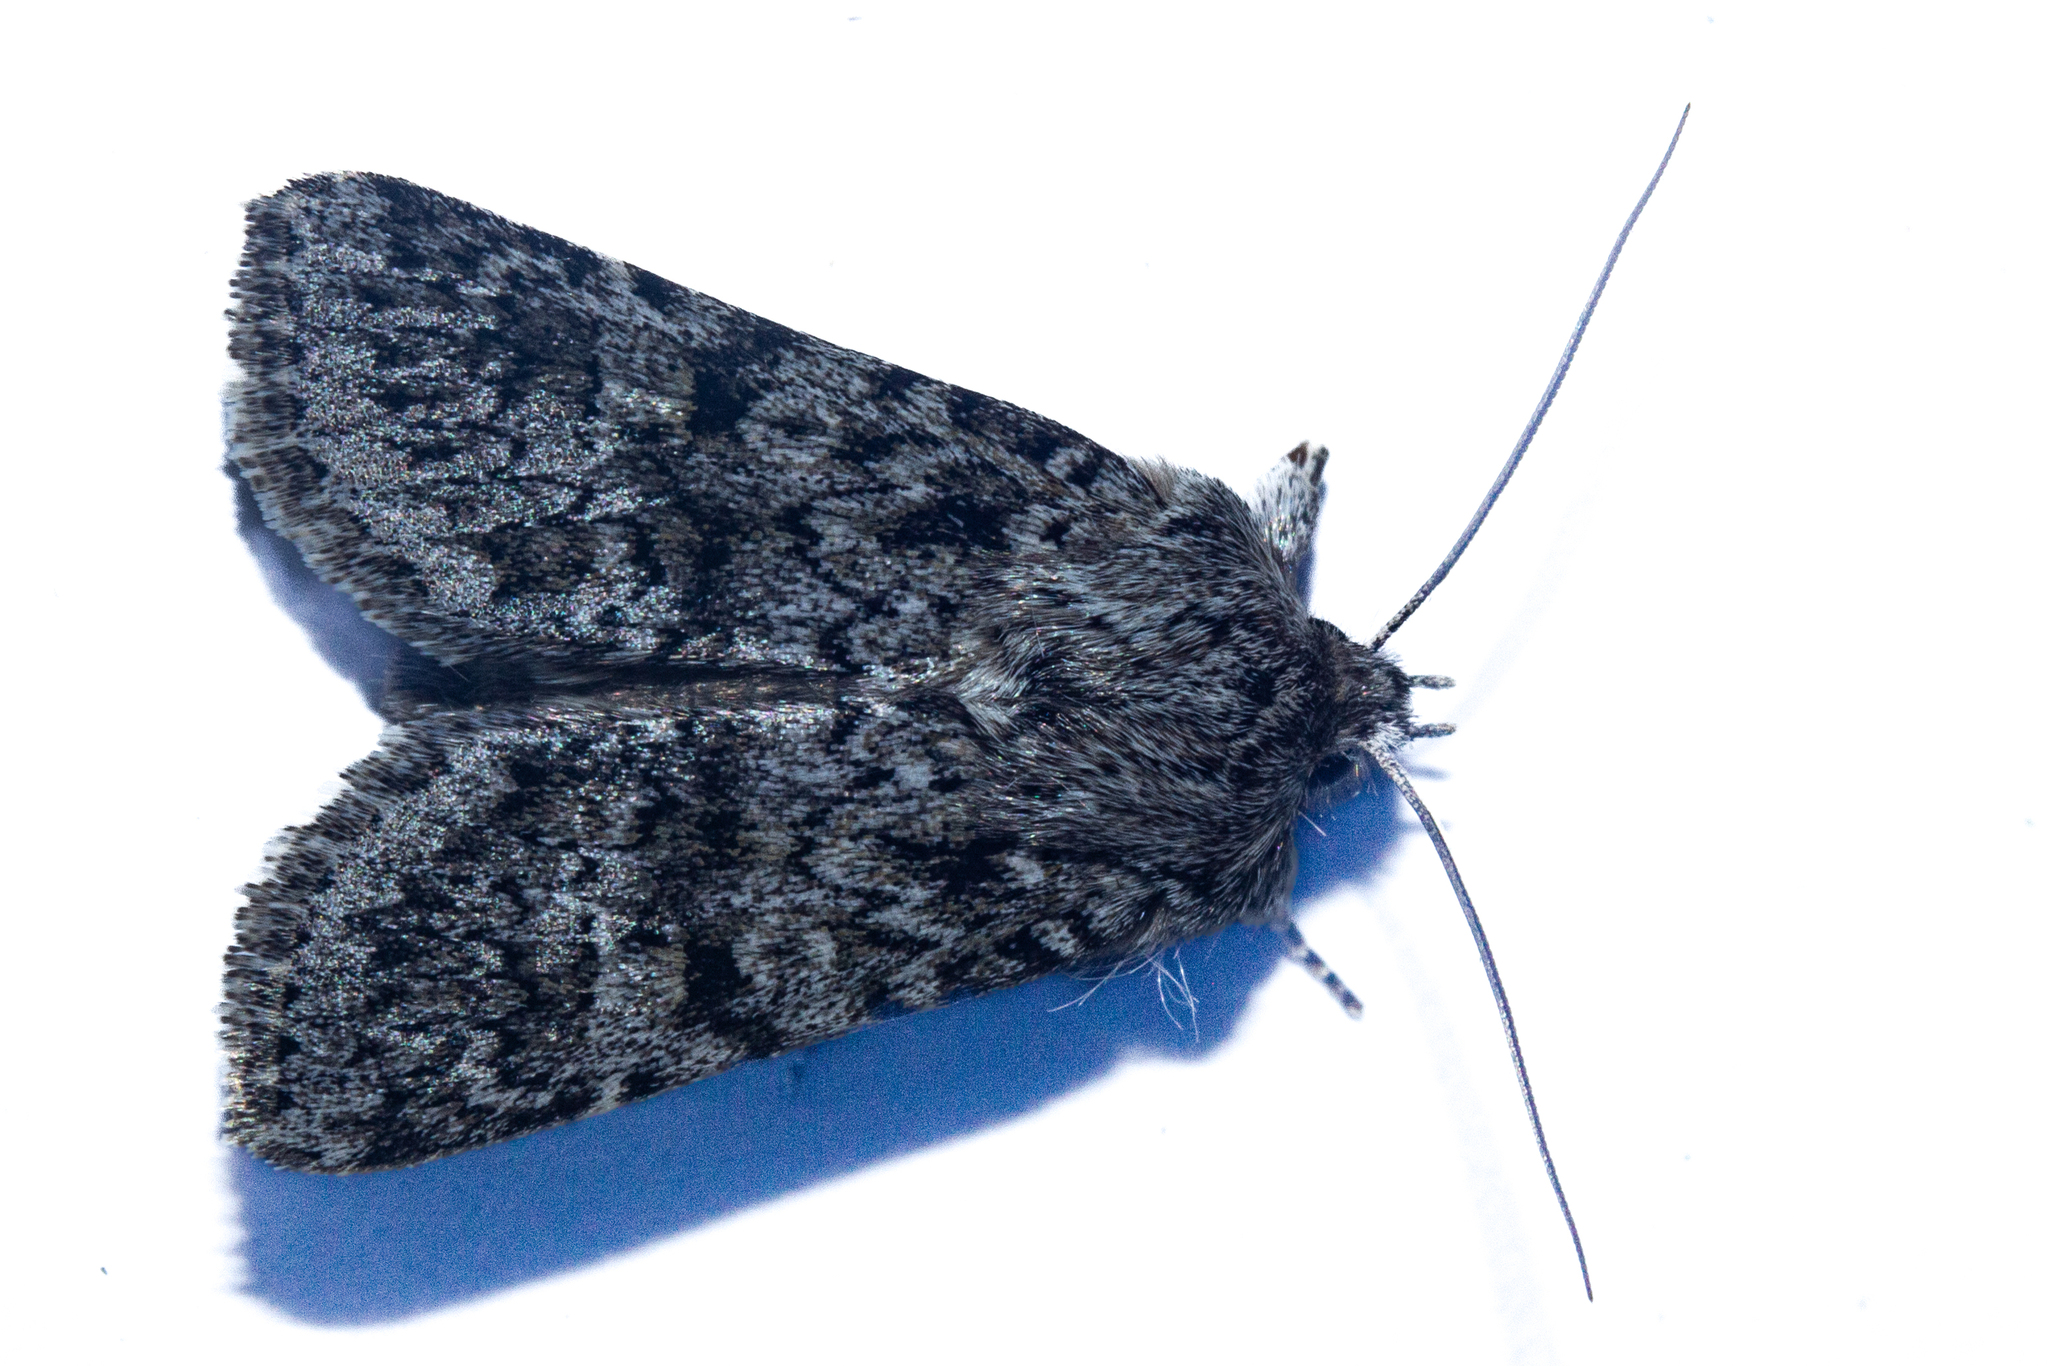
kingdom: Animalia
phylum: Arthropoda
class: Insecta
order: Lepidoptera
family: Noctuidae
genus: Physetica
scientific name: Physetica cucullina
